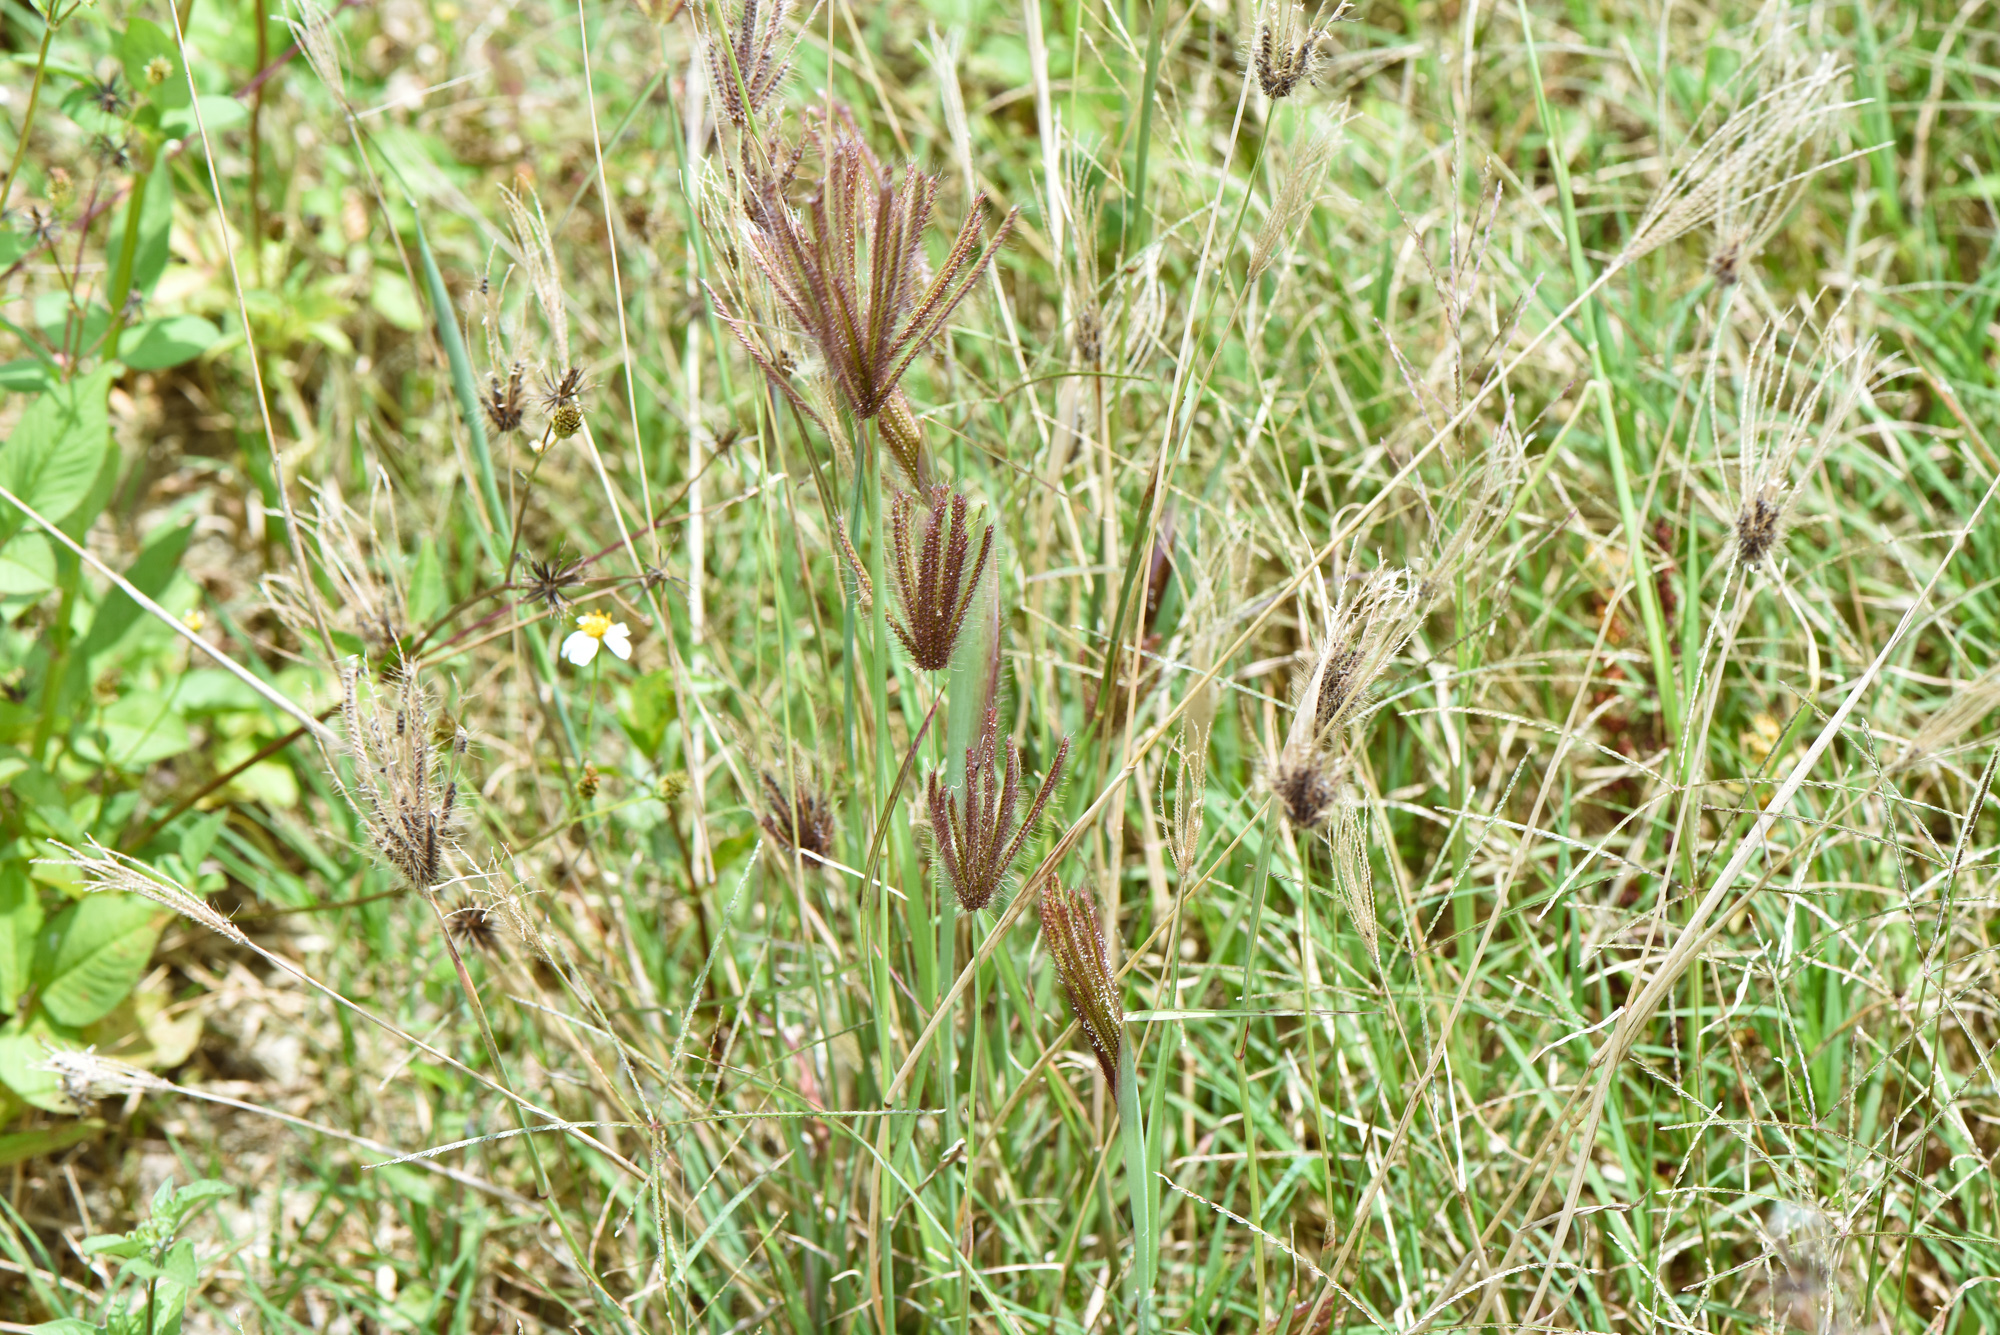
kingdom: Plantae
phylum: Tracheophyta
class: Liliopsida
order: Poales
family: Poaceae
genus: Chloris
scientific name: Chloris barbata
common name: Swollen fingergrass
